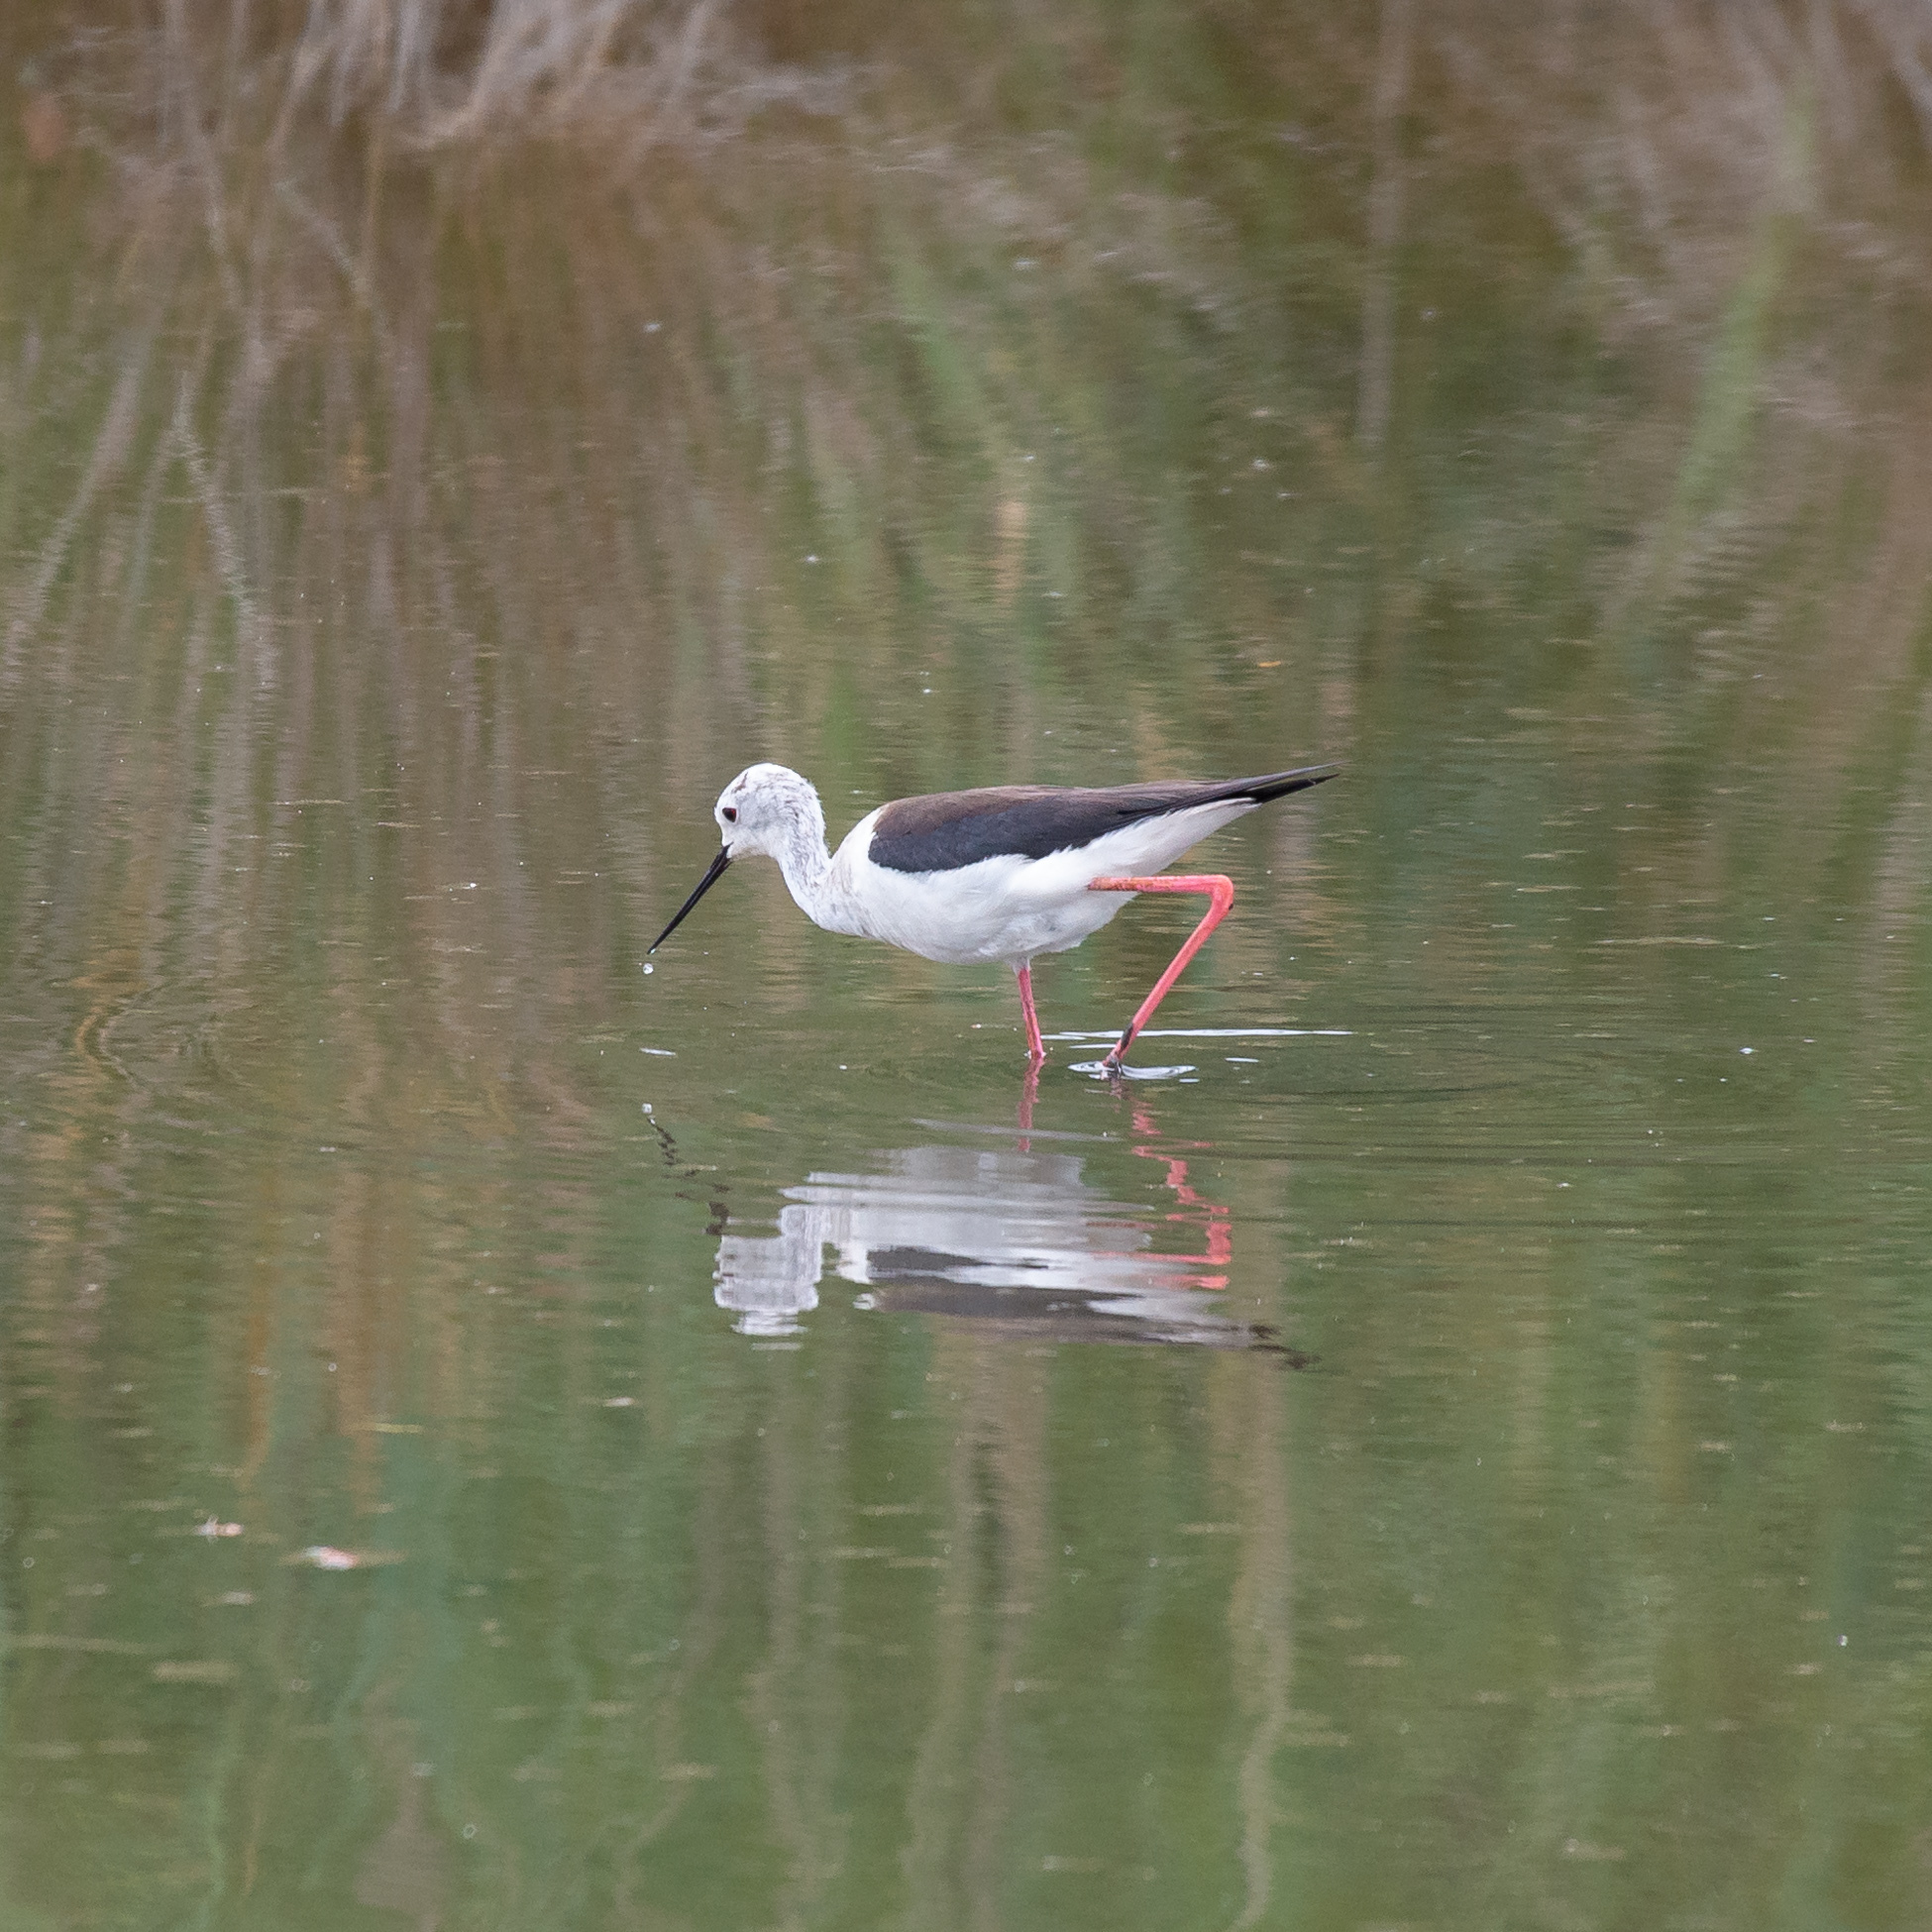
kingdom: Animalia
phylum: Chordata
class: Aves
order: Charadriiformes
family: Recurvirostridae
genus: Himantopus
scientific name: Himantopus himantopus
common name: Black-winged stilt
